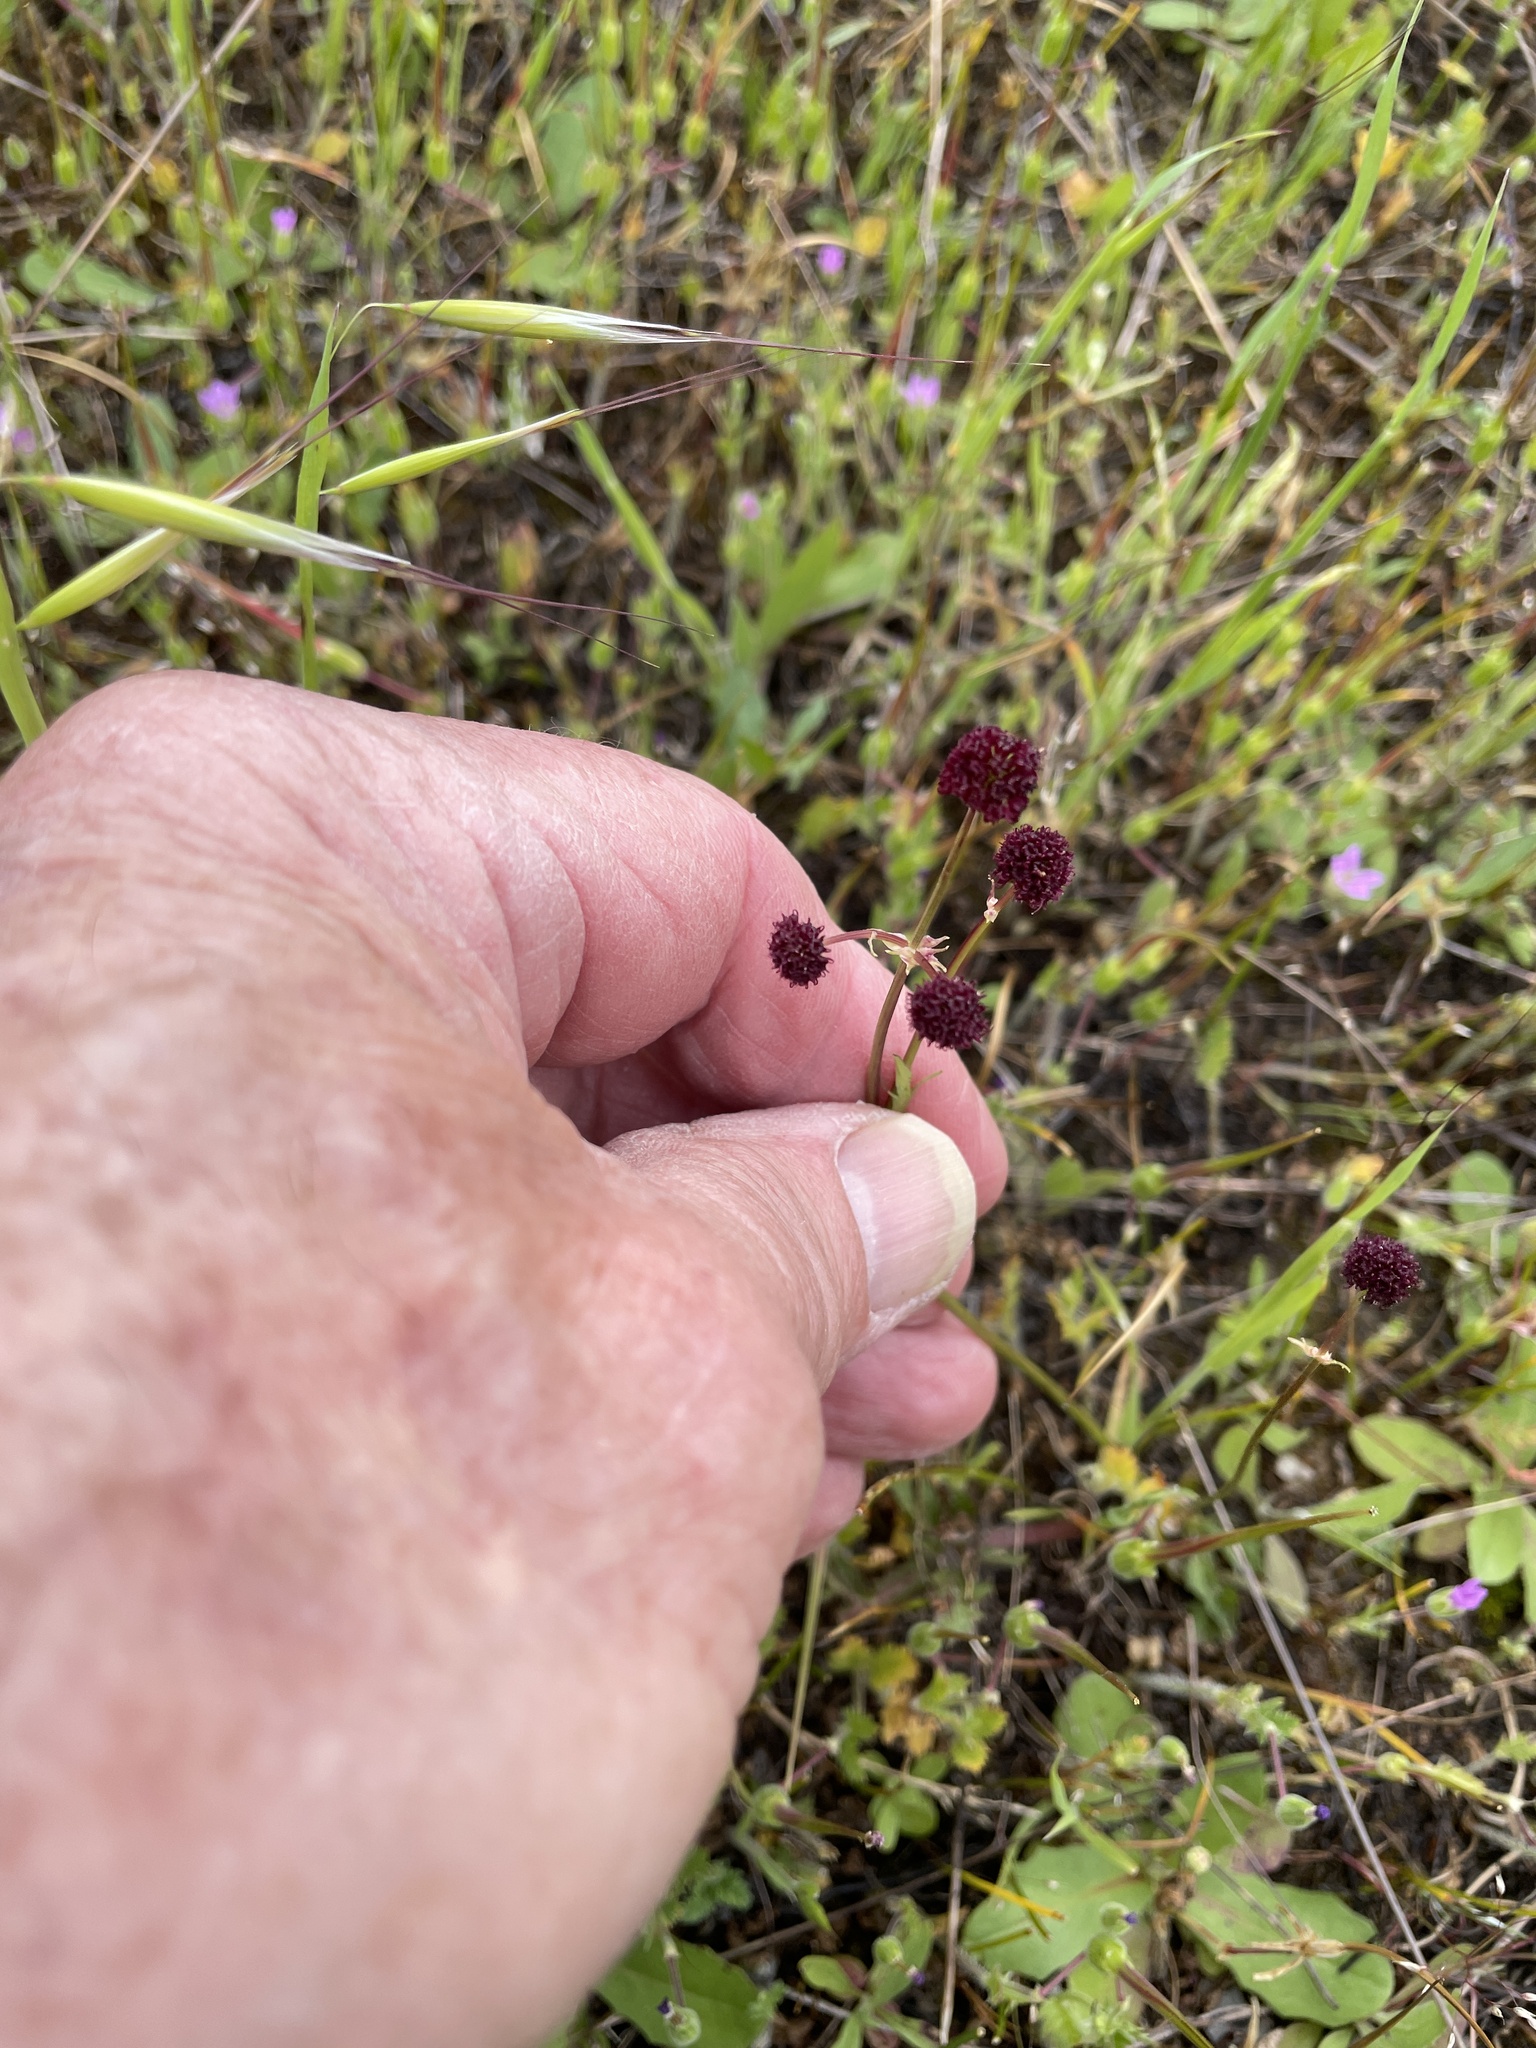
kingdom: Plantae
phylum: Tracheophyta
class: Magnoliopsida
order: Apiales
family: Apiaceae
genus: Sanicula
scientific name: Sanicula bipinnatifida
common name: Shoe-buttons
